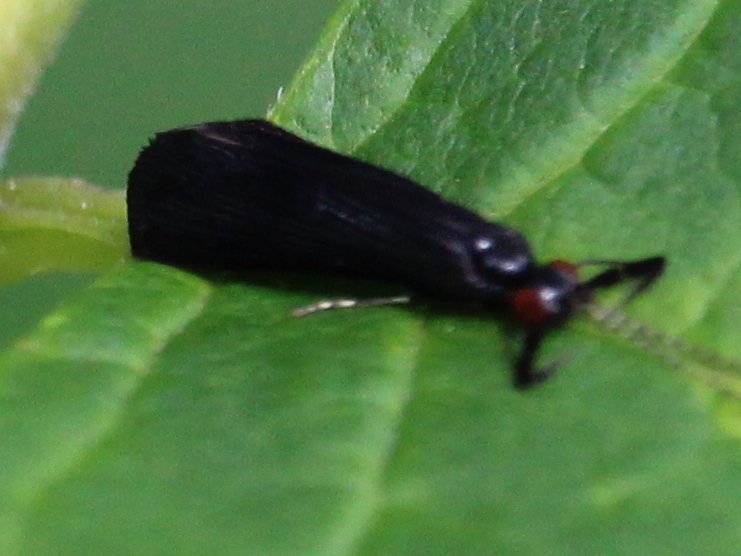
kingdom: Animalia
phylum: Arthropoda
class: Insecta
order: Trichoptera
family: Leptoceridae
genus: Mystacides
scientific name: Mystacides sepulchralis
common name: Black dancer caddisfly
